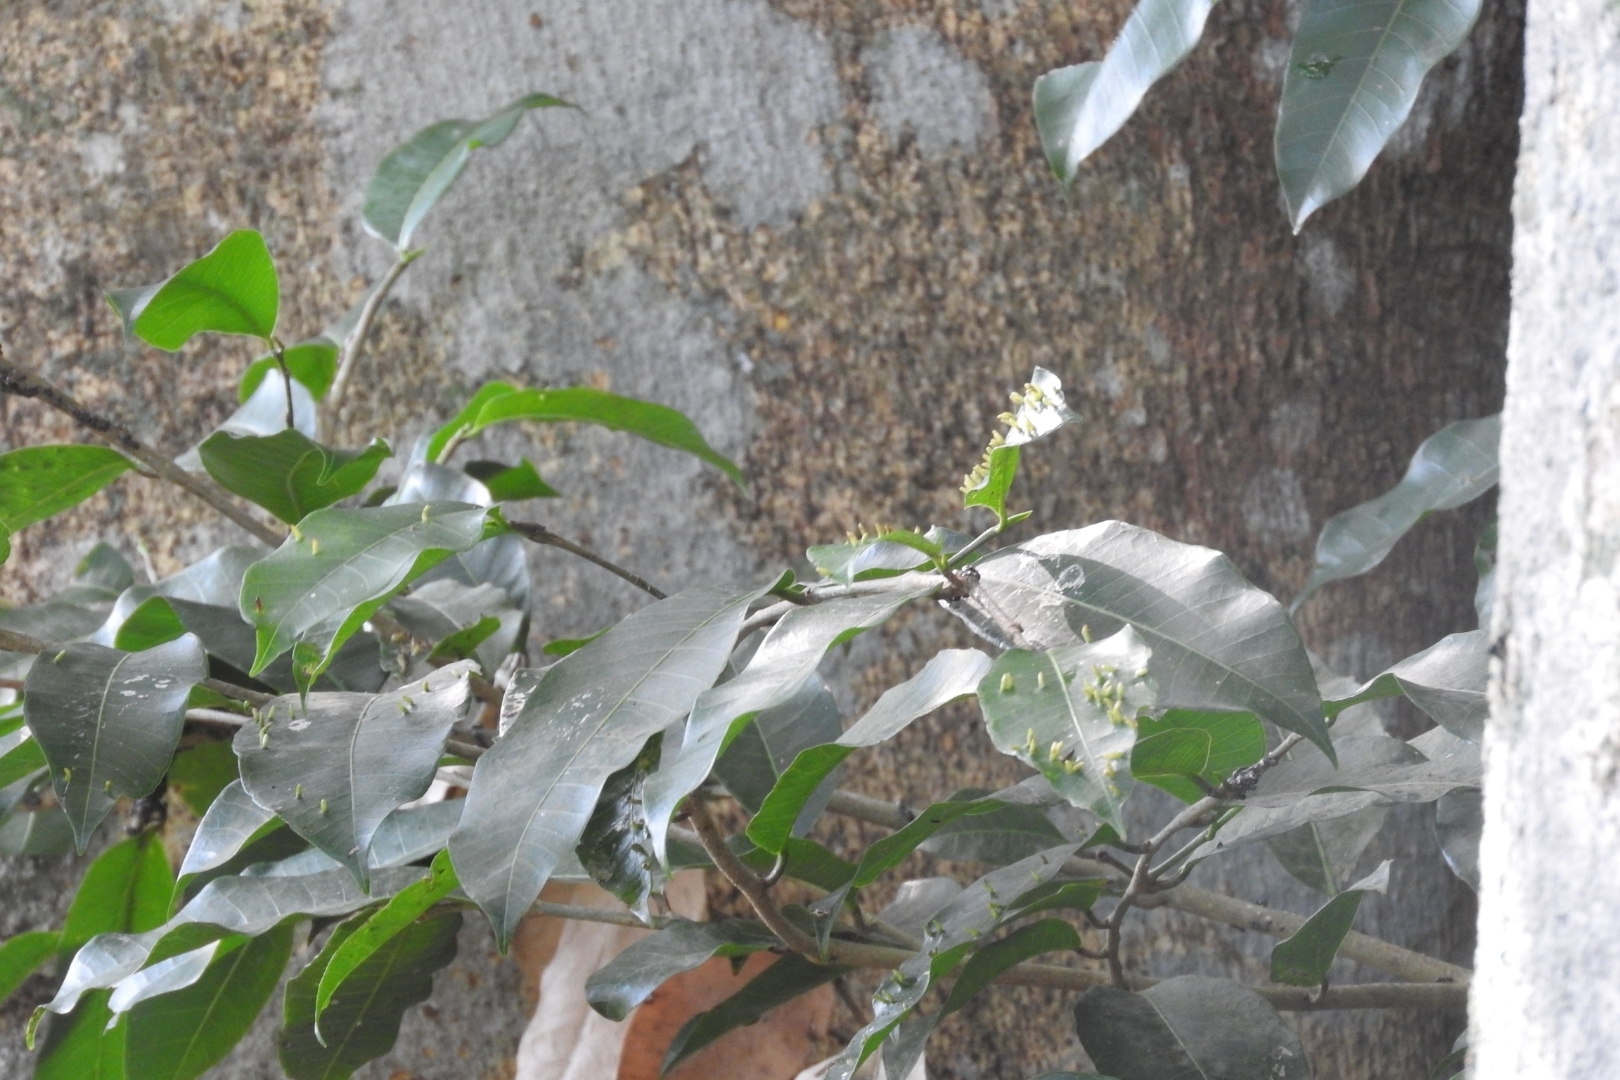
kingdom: Plantae
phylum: Tracheophyta
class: Magnoliopsida
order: Fabales
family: Fabaceae
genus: Enterolobium
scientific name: Enterolobium cyclocarpum
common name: Ear tree
